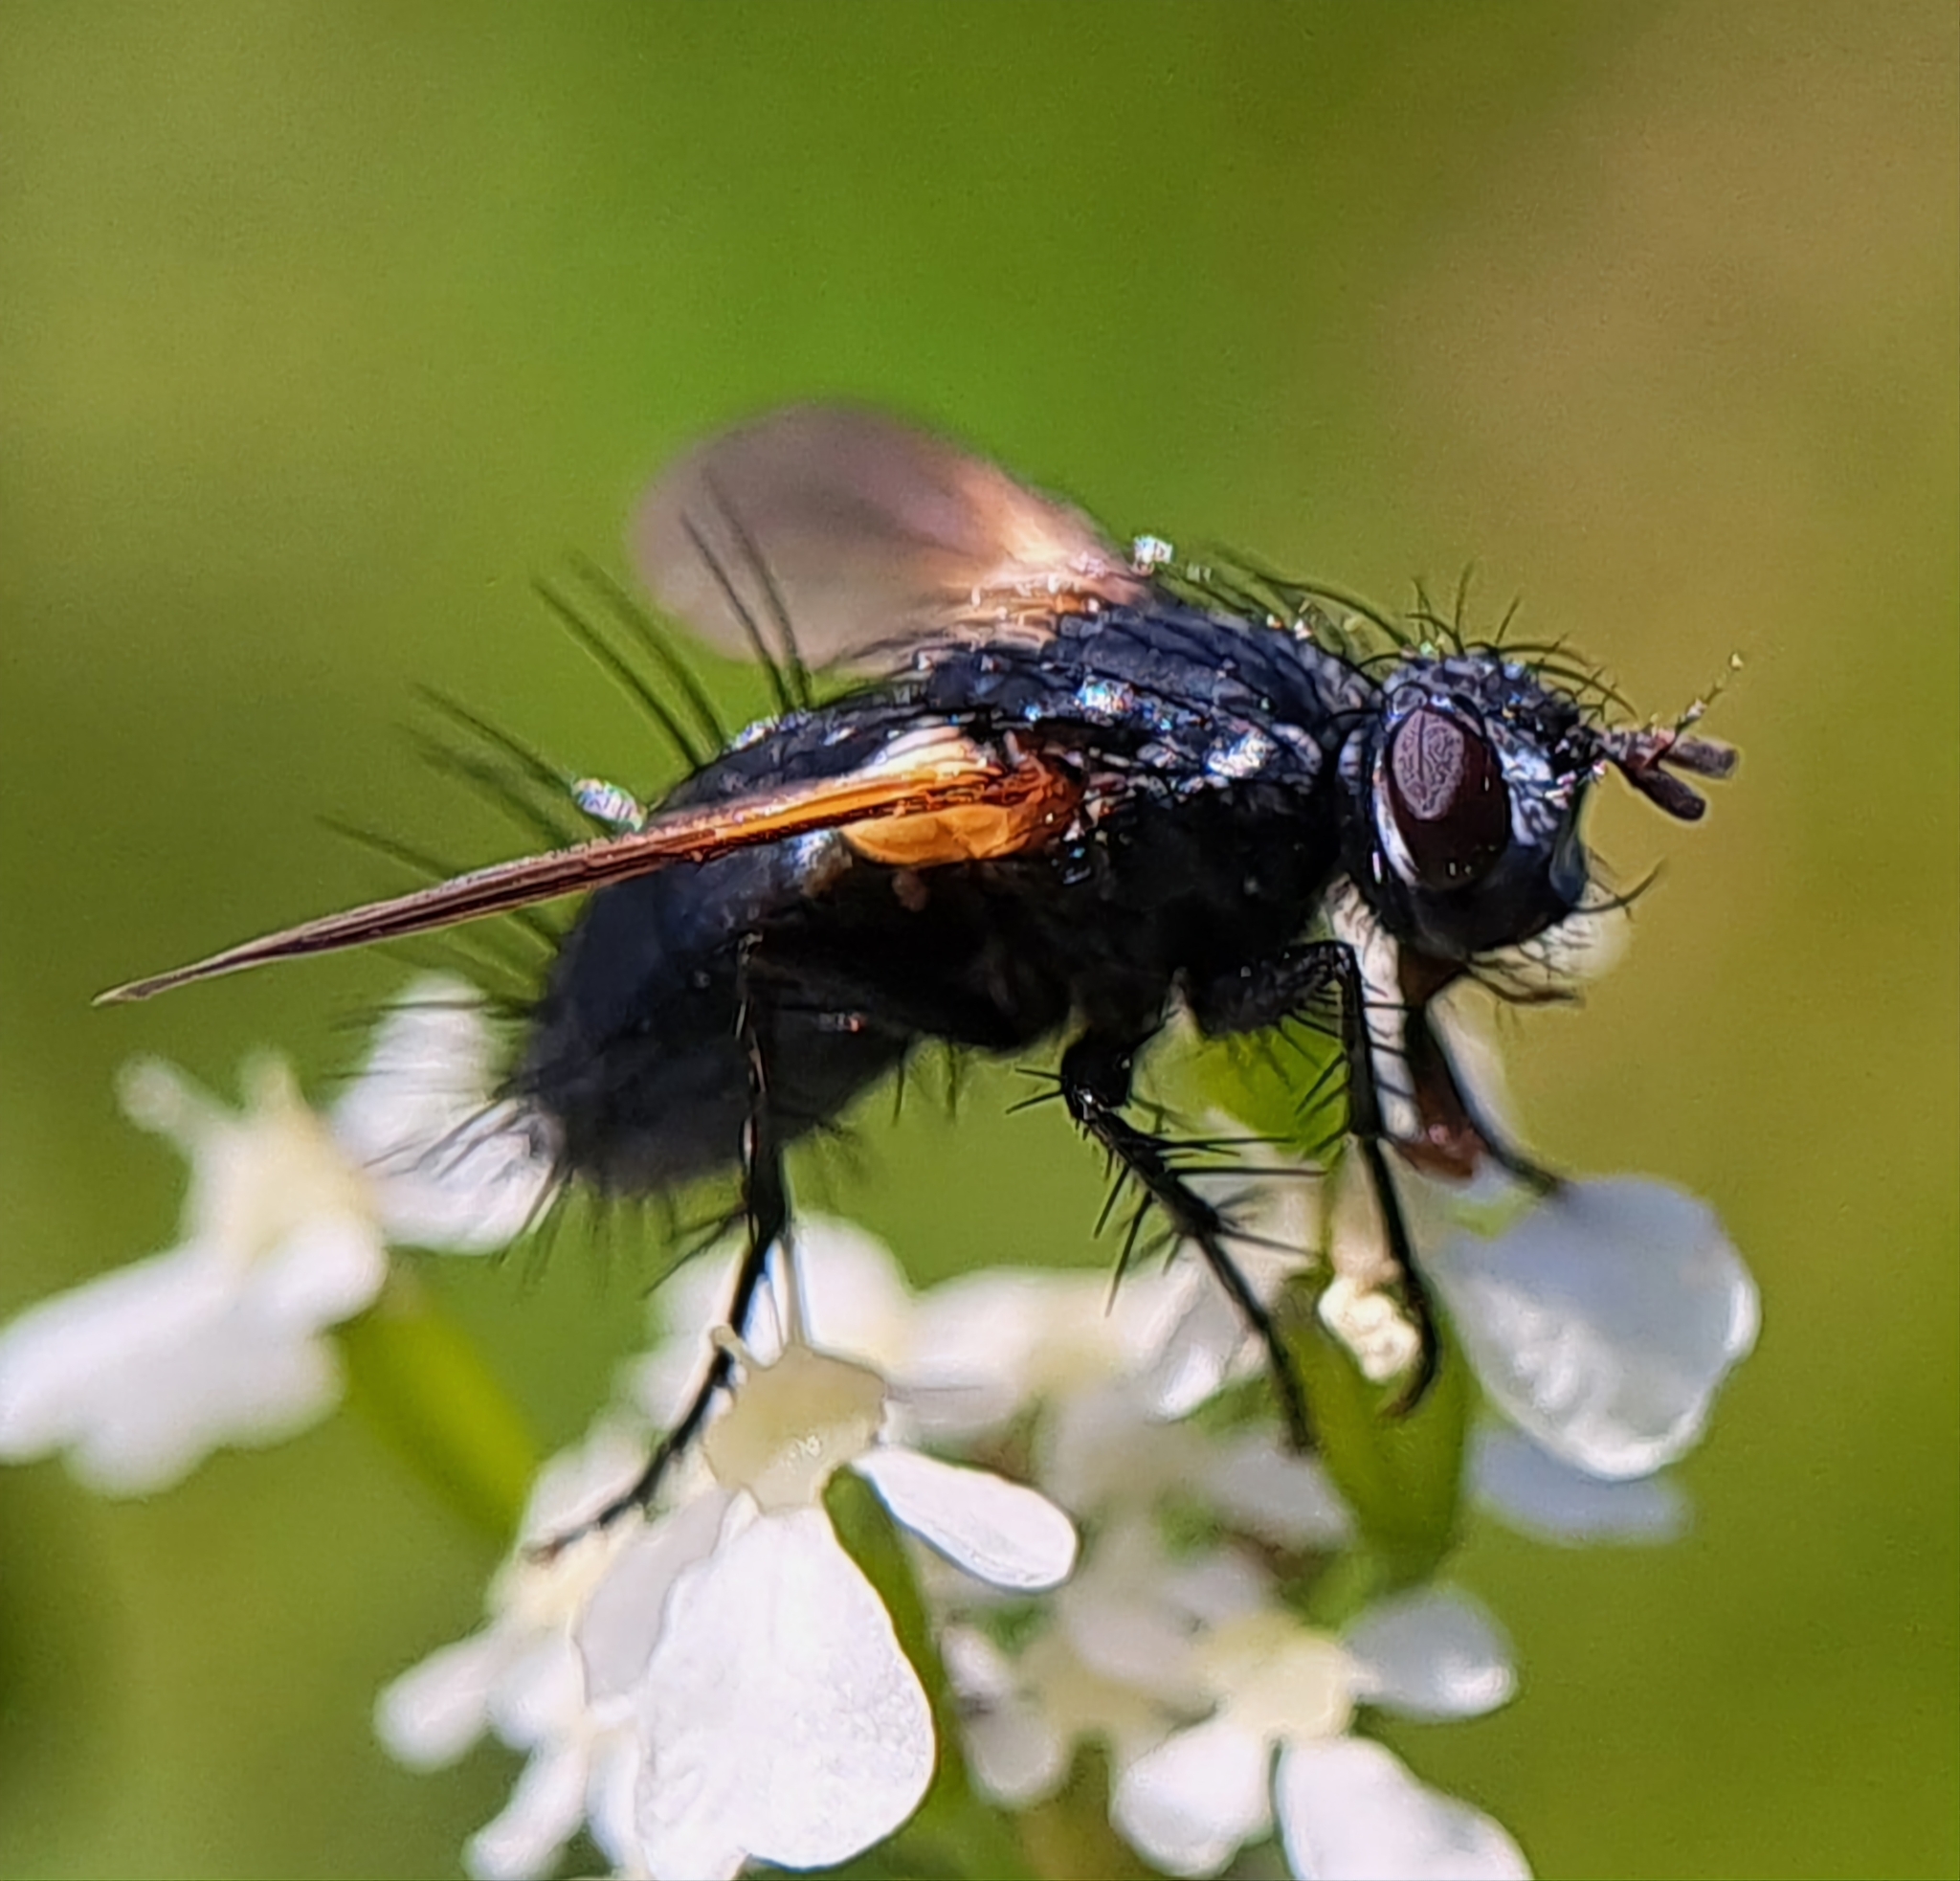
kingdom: Animalia
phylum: Arthropoda
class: Insecta
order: Diptera
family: Tachinidae
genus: Zophomyia
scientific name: Zophomyia temula
